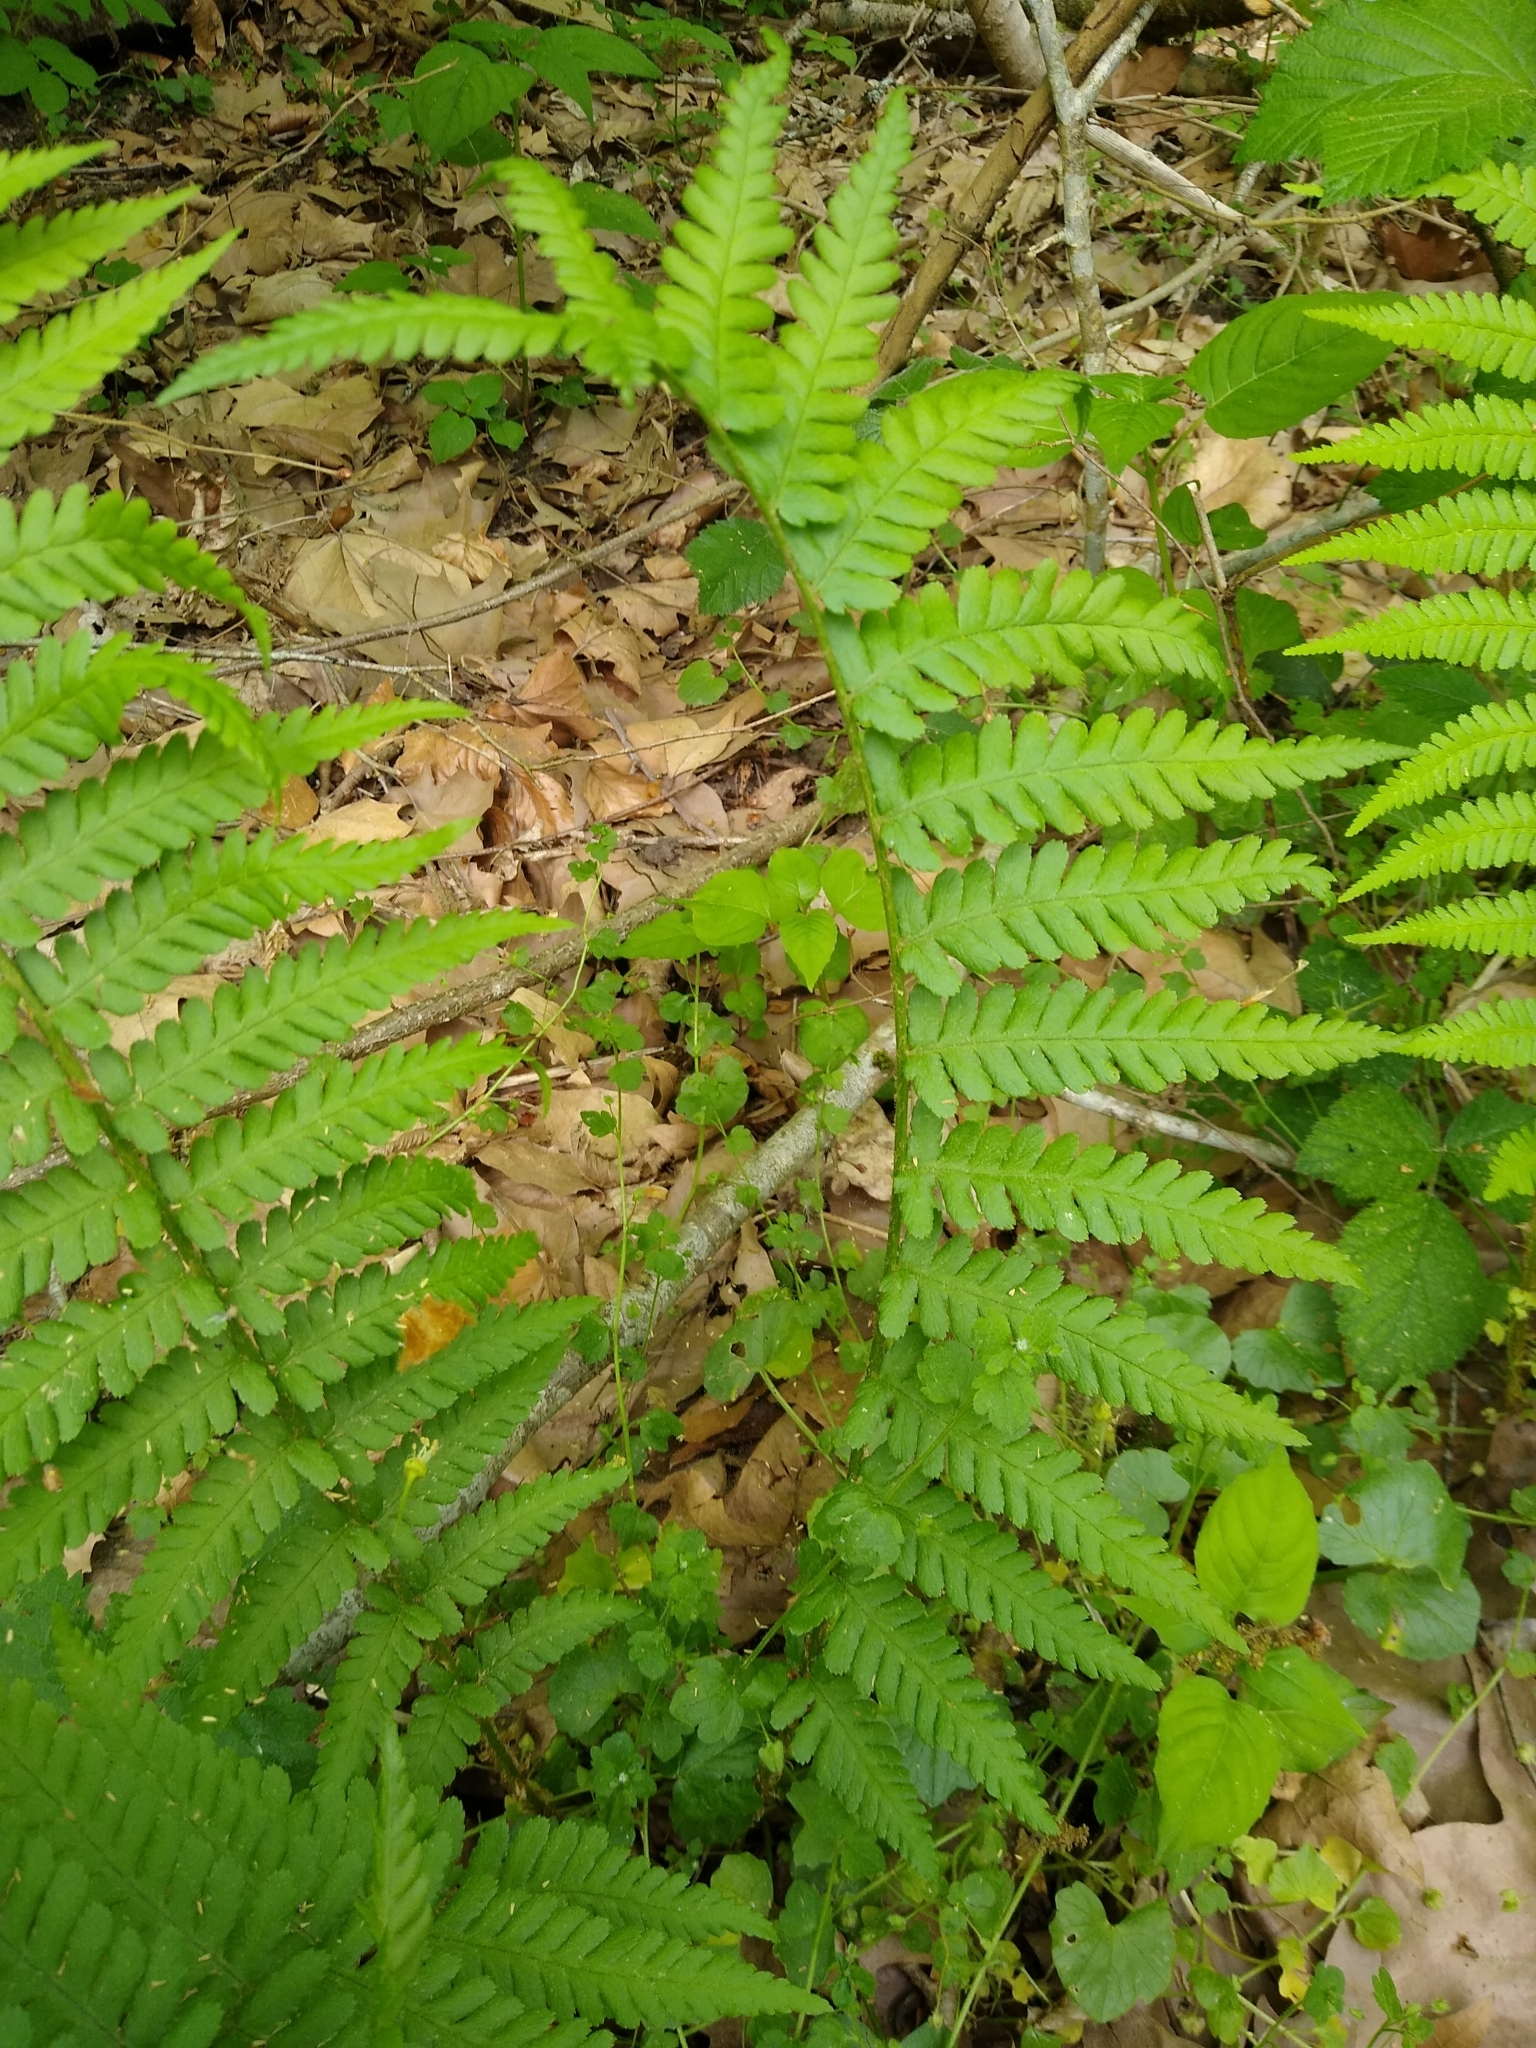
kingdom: Plantae
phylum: Tracheophyta
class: Polypodiopsida
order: Polypodiales
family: Dryopteridaceae
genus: Dryopteris
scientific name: Dryopteris filix-mas
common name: Male fern
